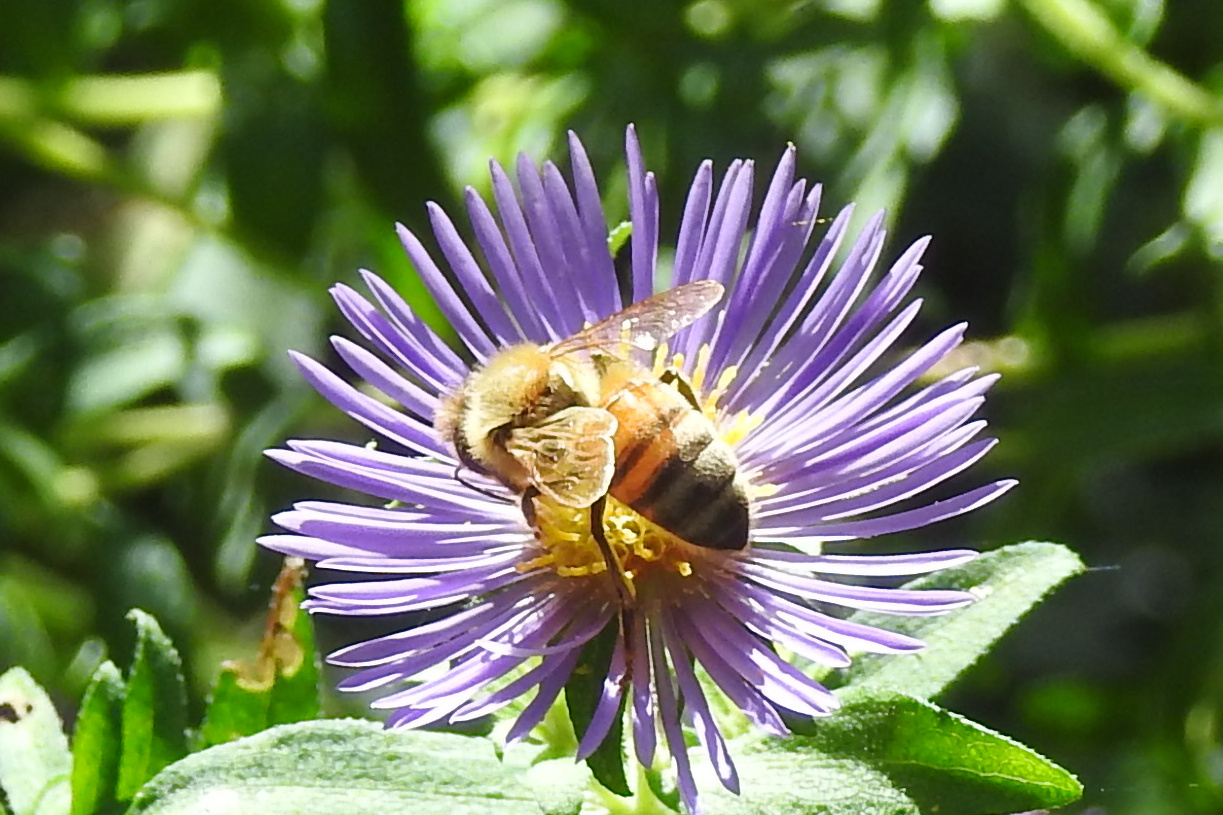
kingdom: Animalia
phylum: Arthropoda
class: Insecta
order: Hymenoptera
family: Apidae
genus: Apis
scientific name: Apis mellifera
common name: Honey bee
